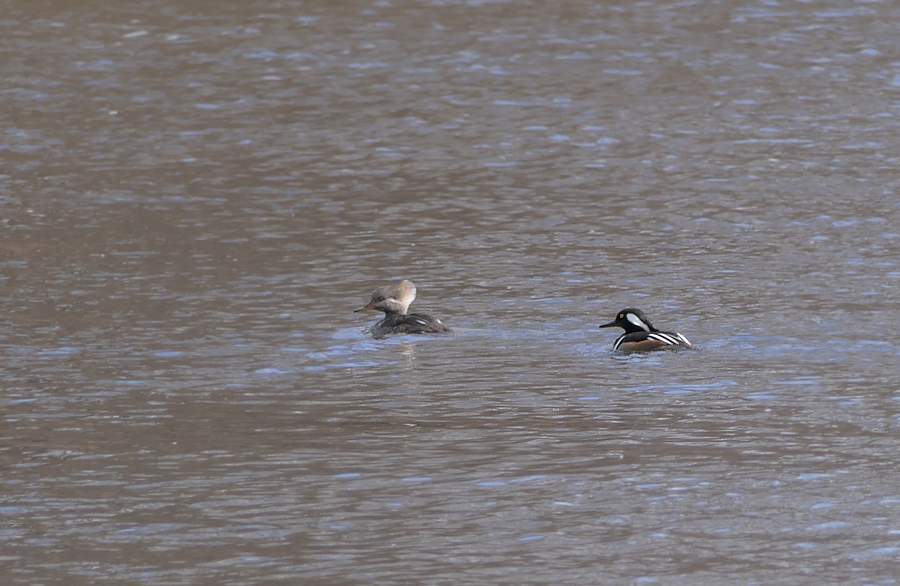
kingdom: Animalia
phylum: Chordata
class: Aves
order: Anseriformes
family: Anatidae
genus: Lophodytes
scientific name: Lophodytes cucullatus
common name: Hooded merganser
